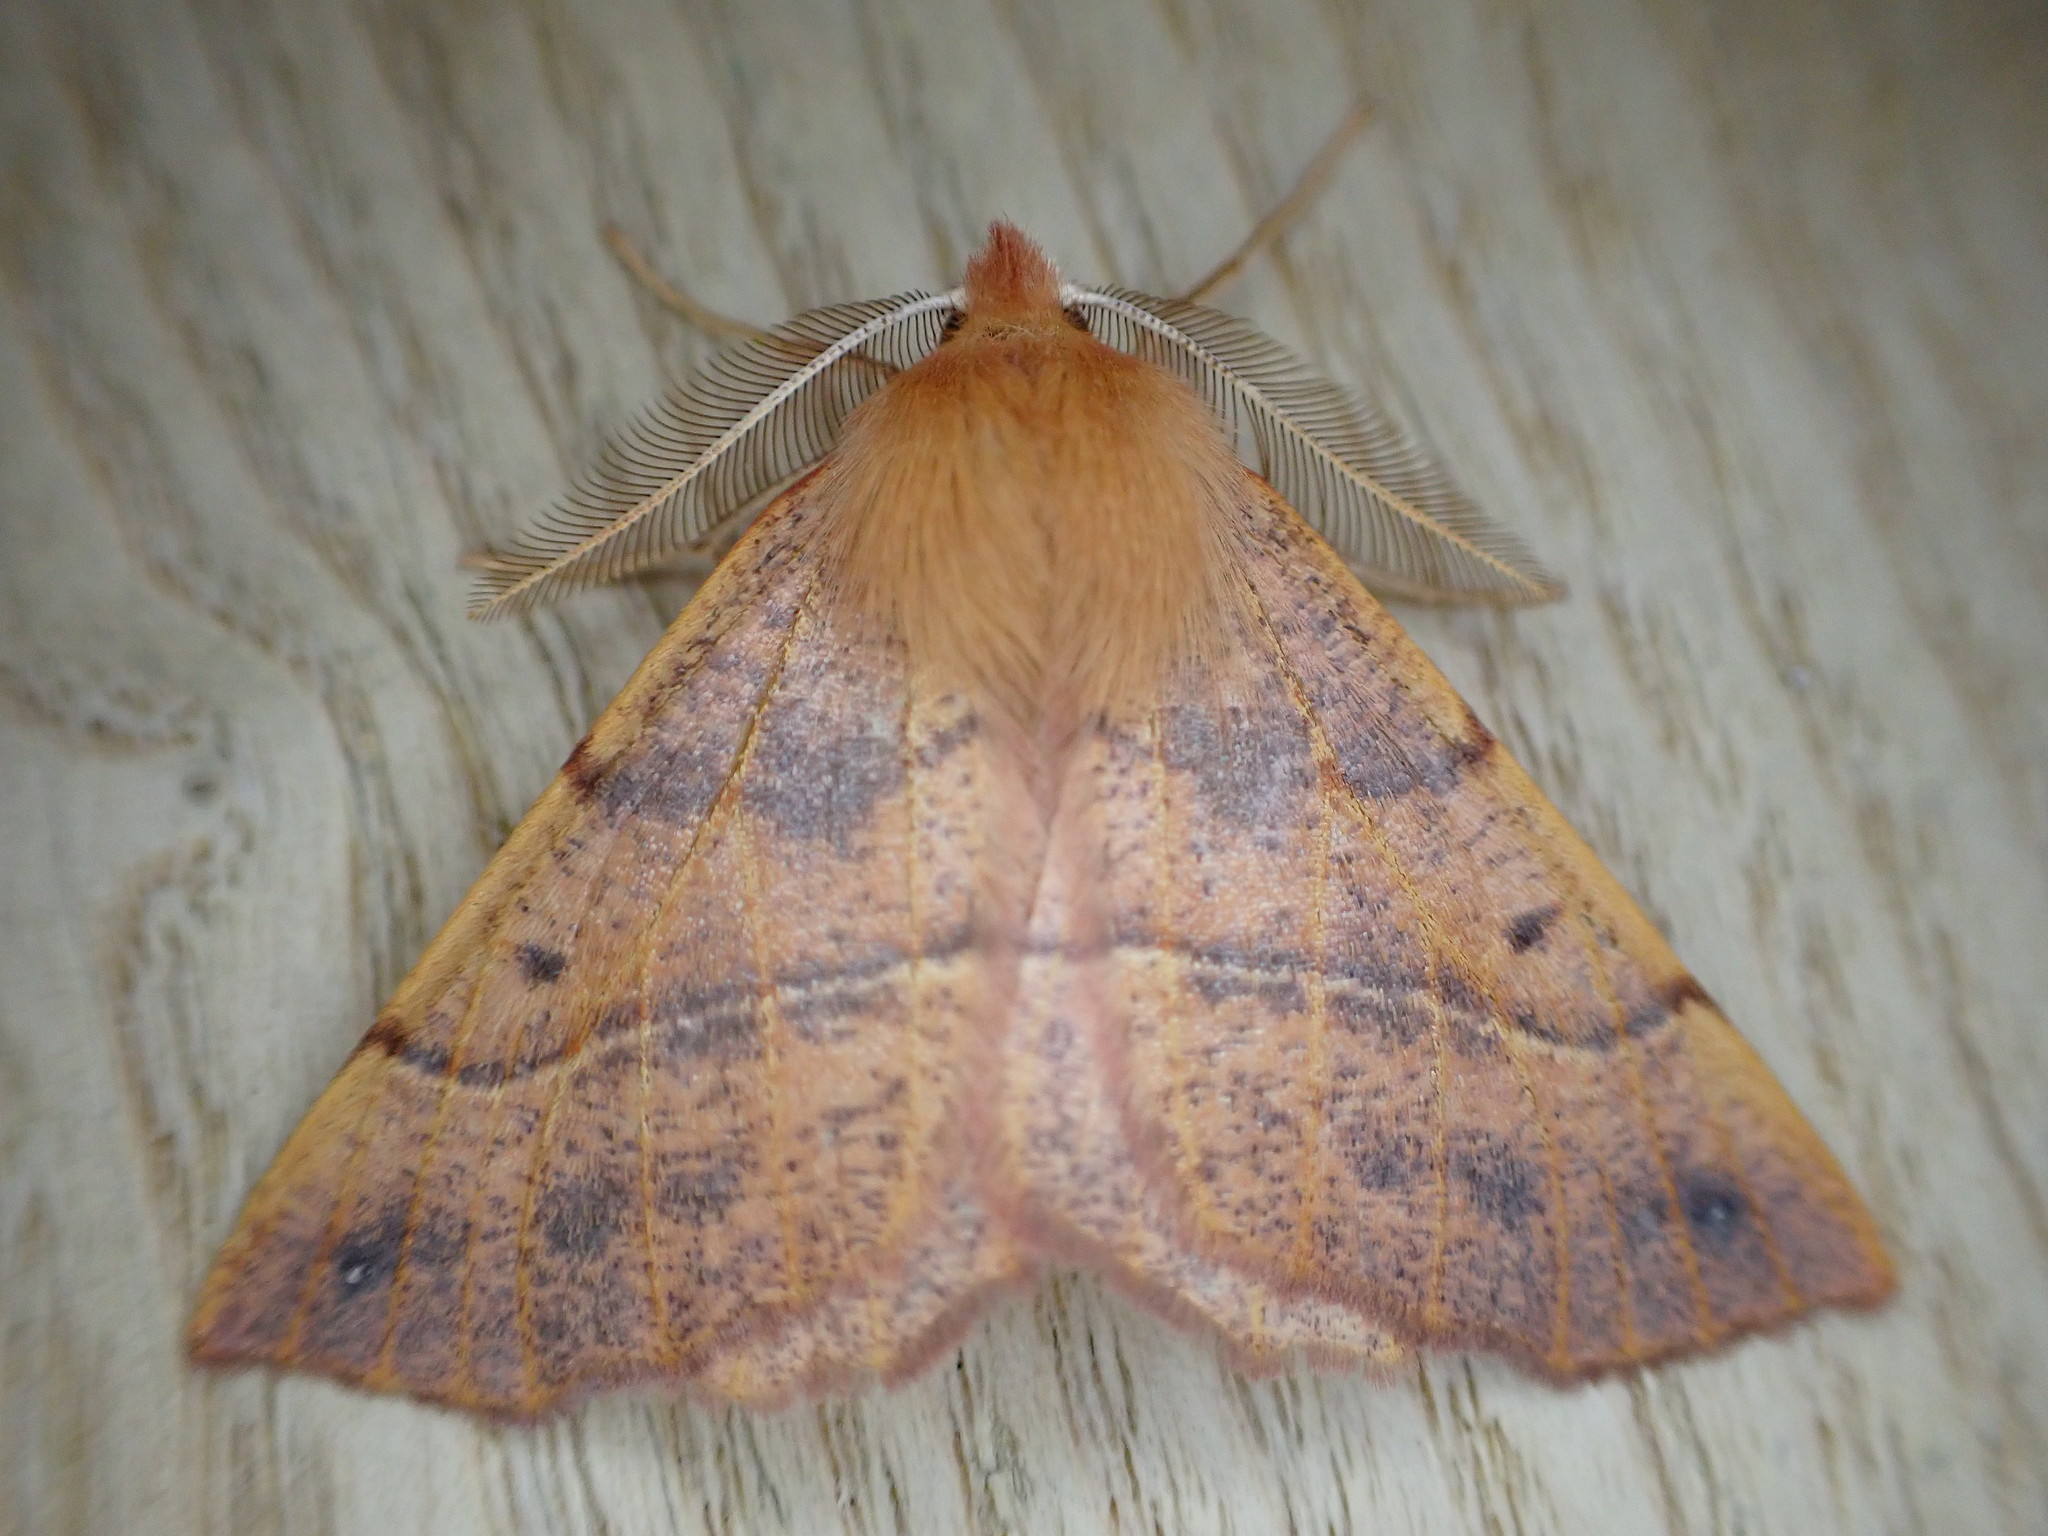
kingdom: Animalia
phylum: Arthropoda
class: Insecta
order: Lepidoptera
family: Geometridae
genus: Colotois
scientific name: Colotois pennaria
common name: Feathered thorn
